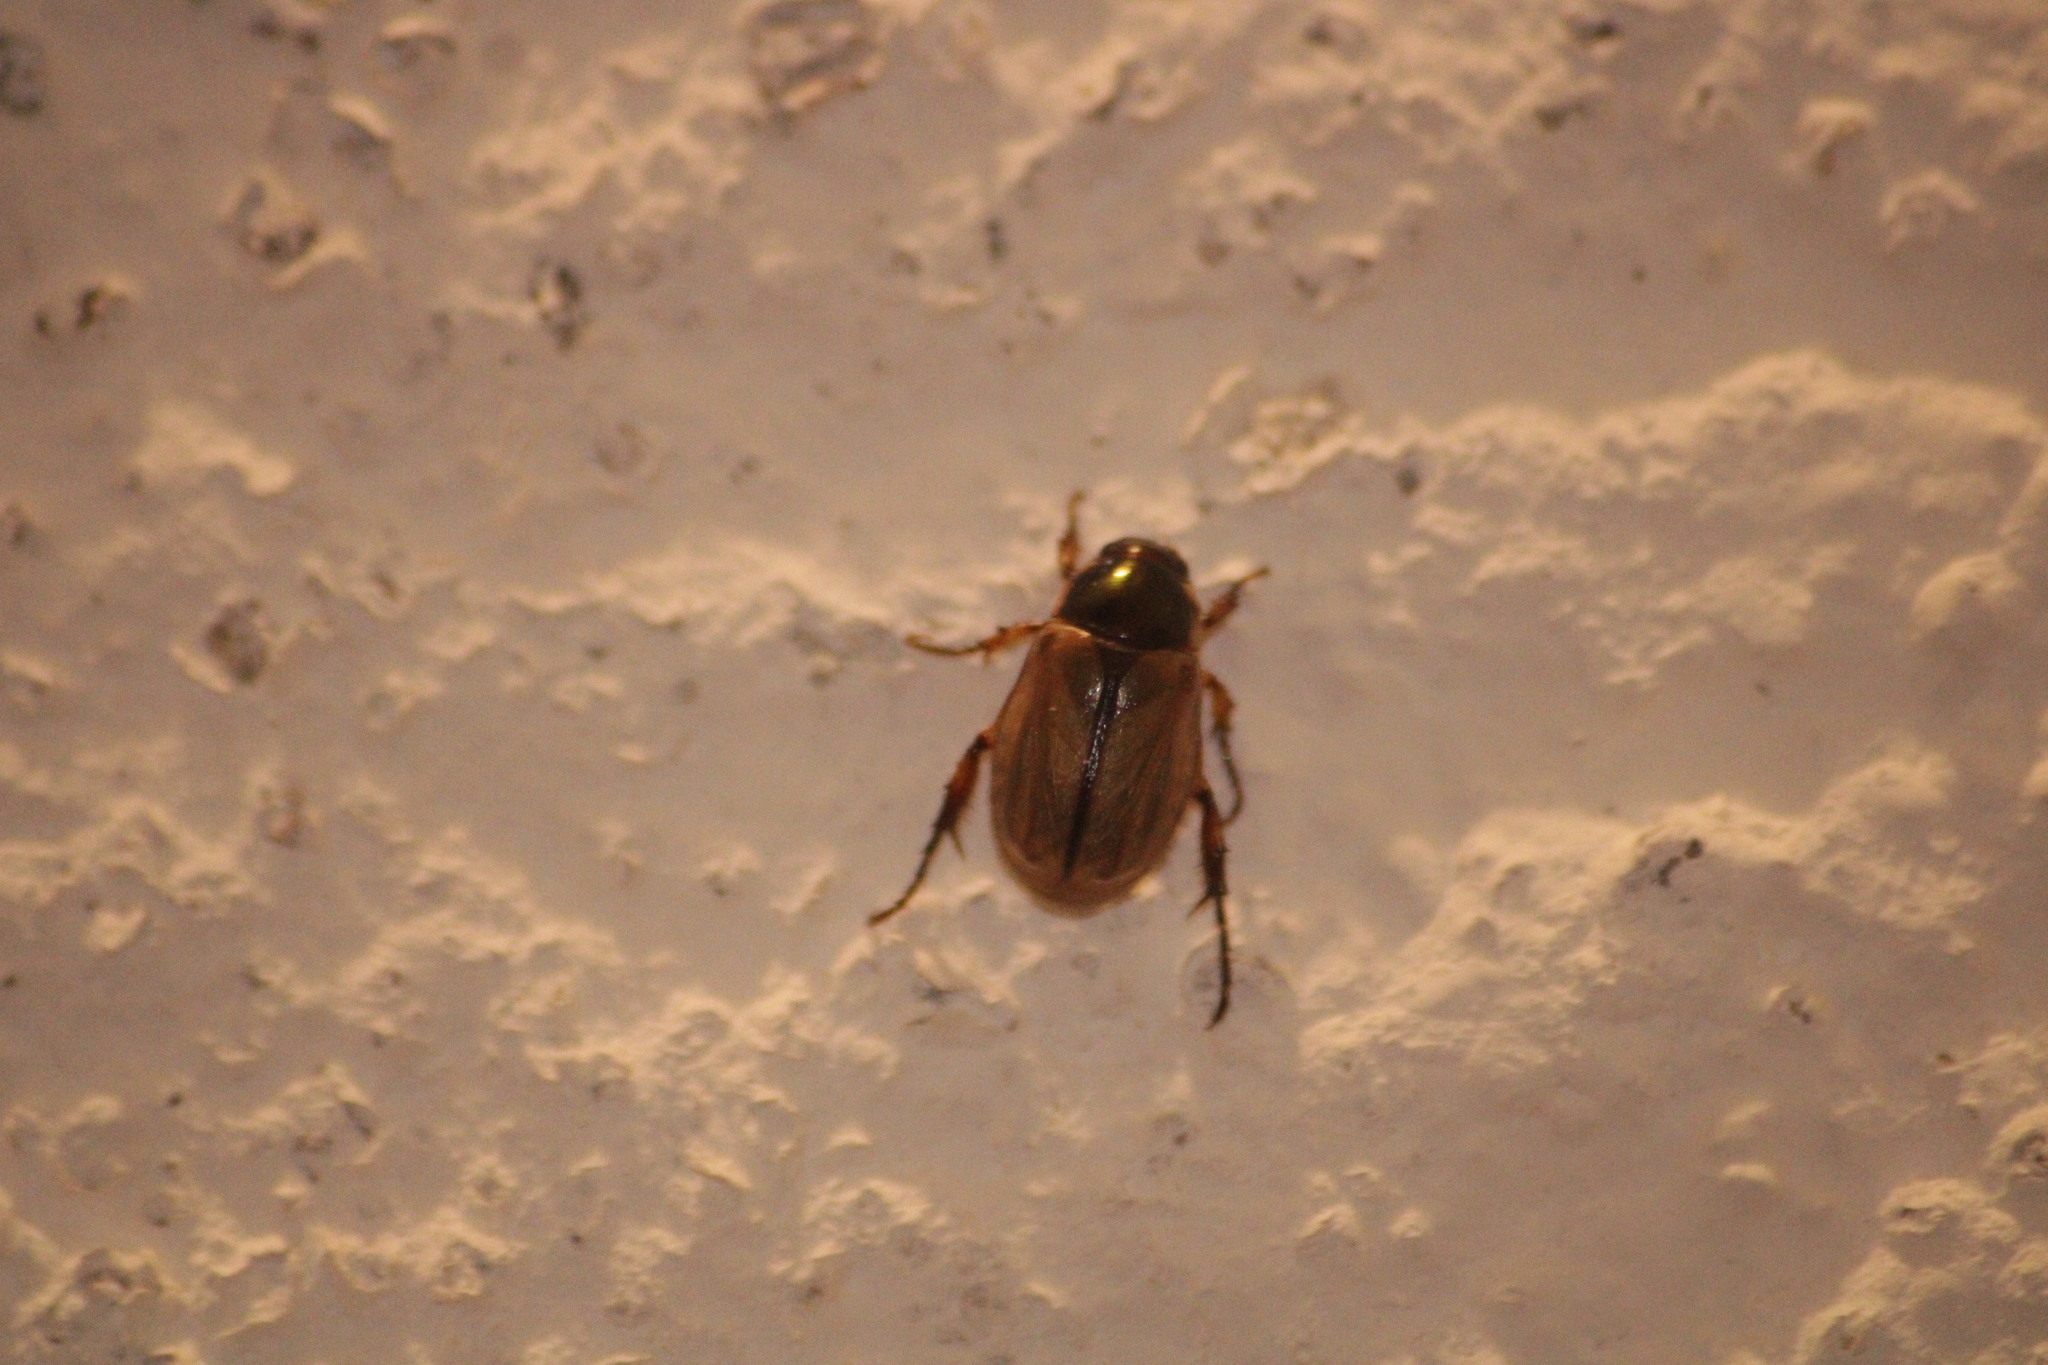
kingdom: Animalia
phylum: Arthropoda
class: Insecta
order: Coleoptera
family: Scarabaeidae
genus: Paranomala
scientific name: Paranomala
